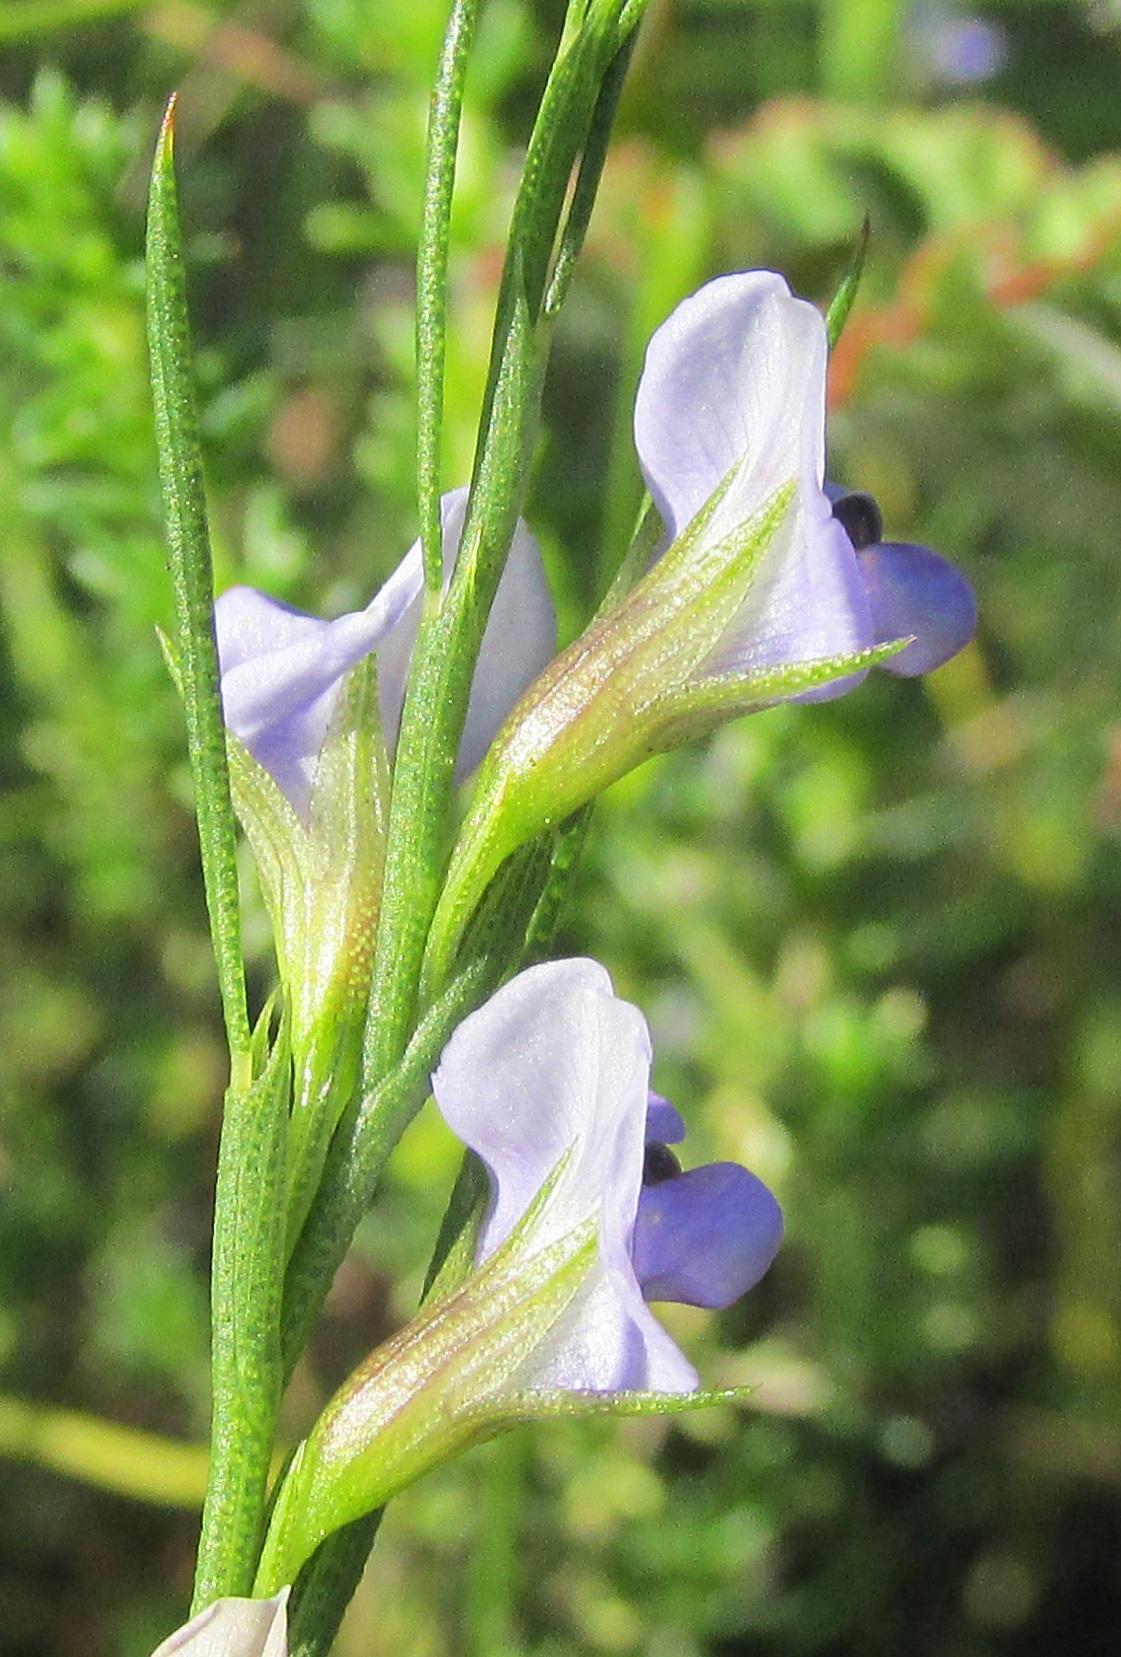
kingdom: Plantae
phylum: Tracheophyta
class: Magnoliopsida
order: Fabales
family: Fabaceae
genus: Psoralea
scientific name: Psoralea restioides
